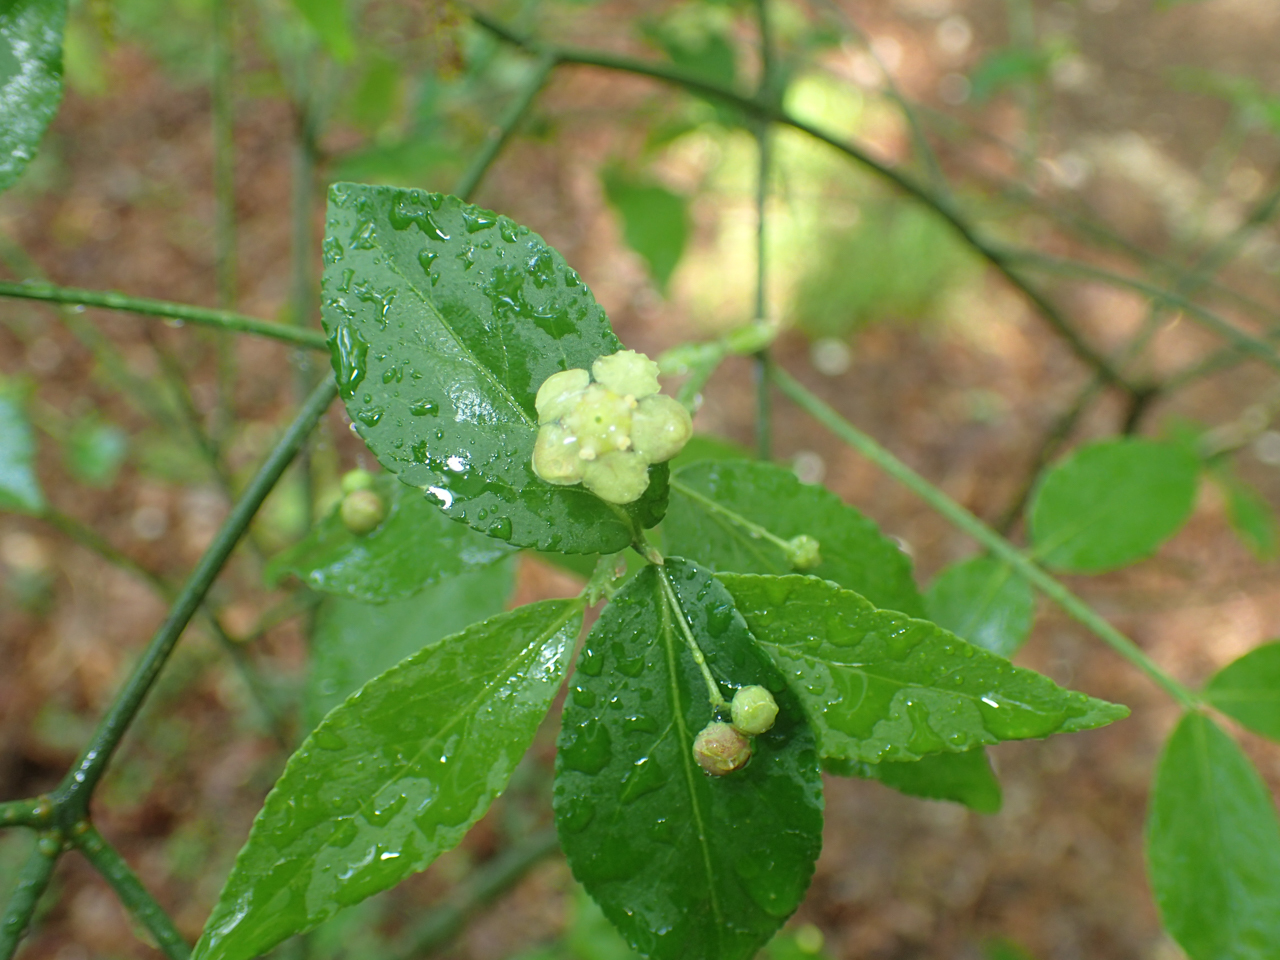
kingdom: Plantae
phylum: Tracheophyta
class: Magnoliopsida
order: Celastrales
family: Celastraceae
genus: Euonymus
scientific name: Euonymus americanus
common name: Bursting-heart
